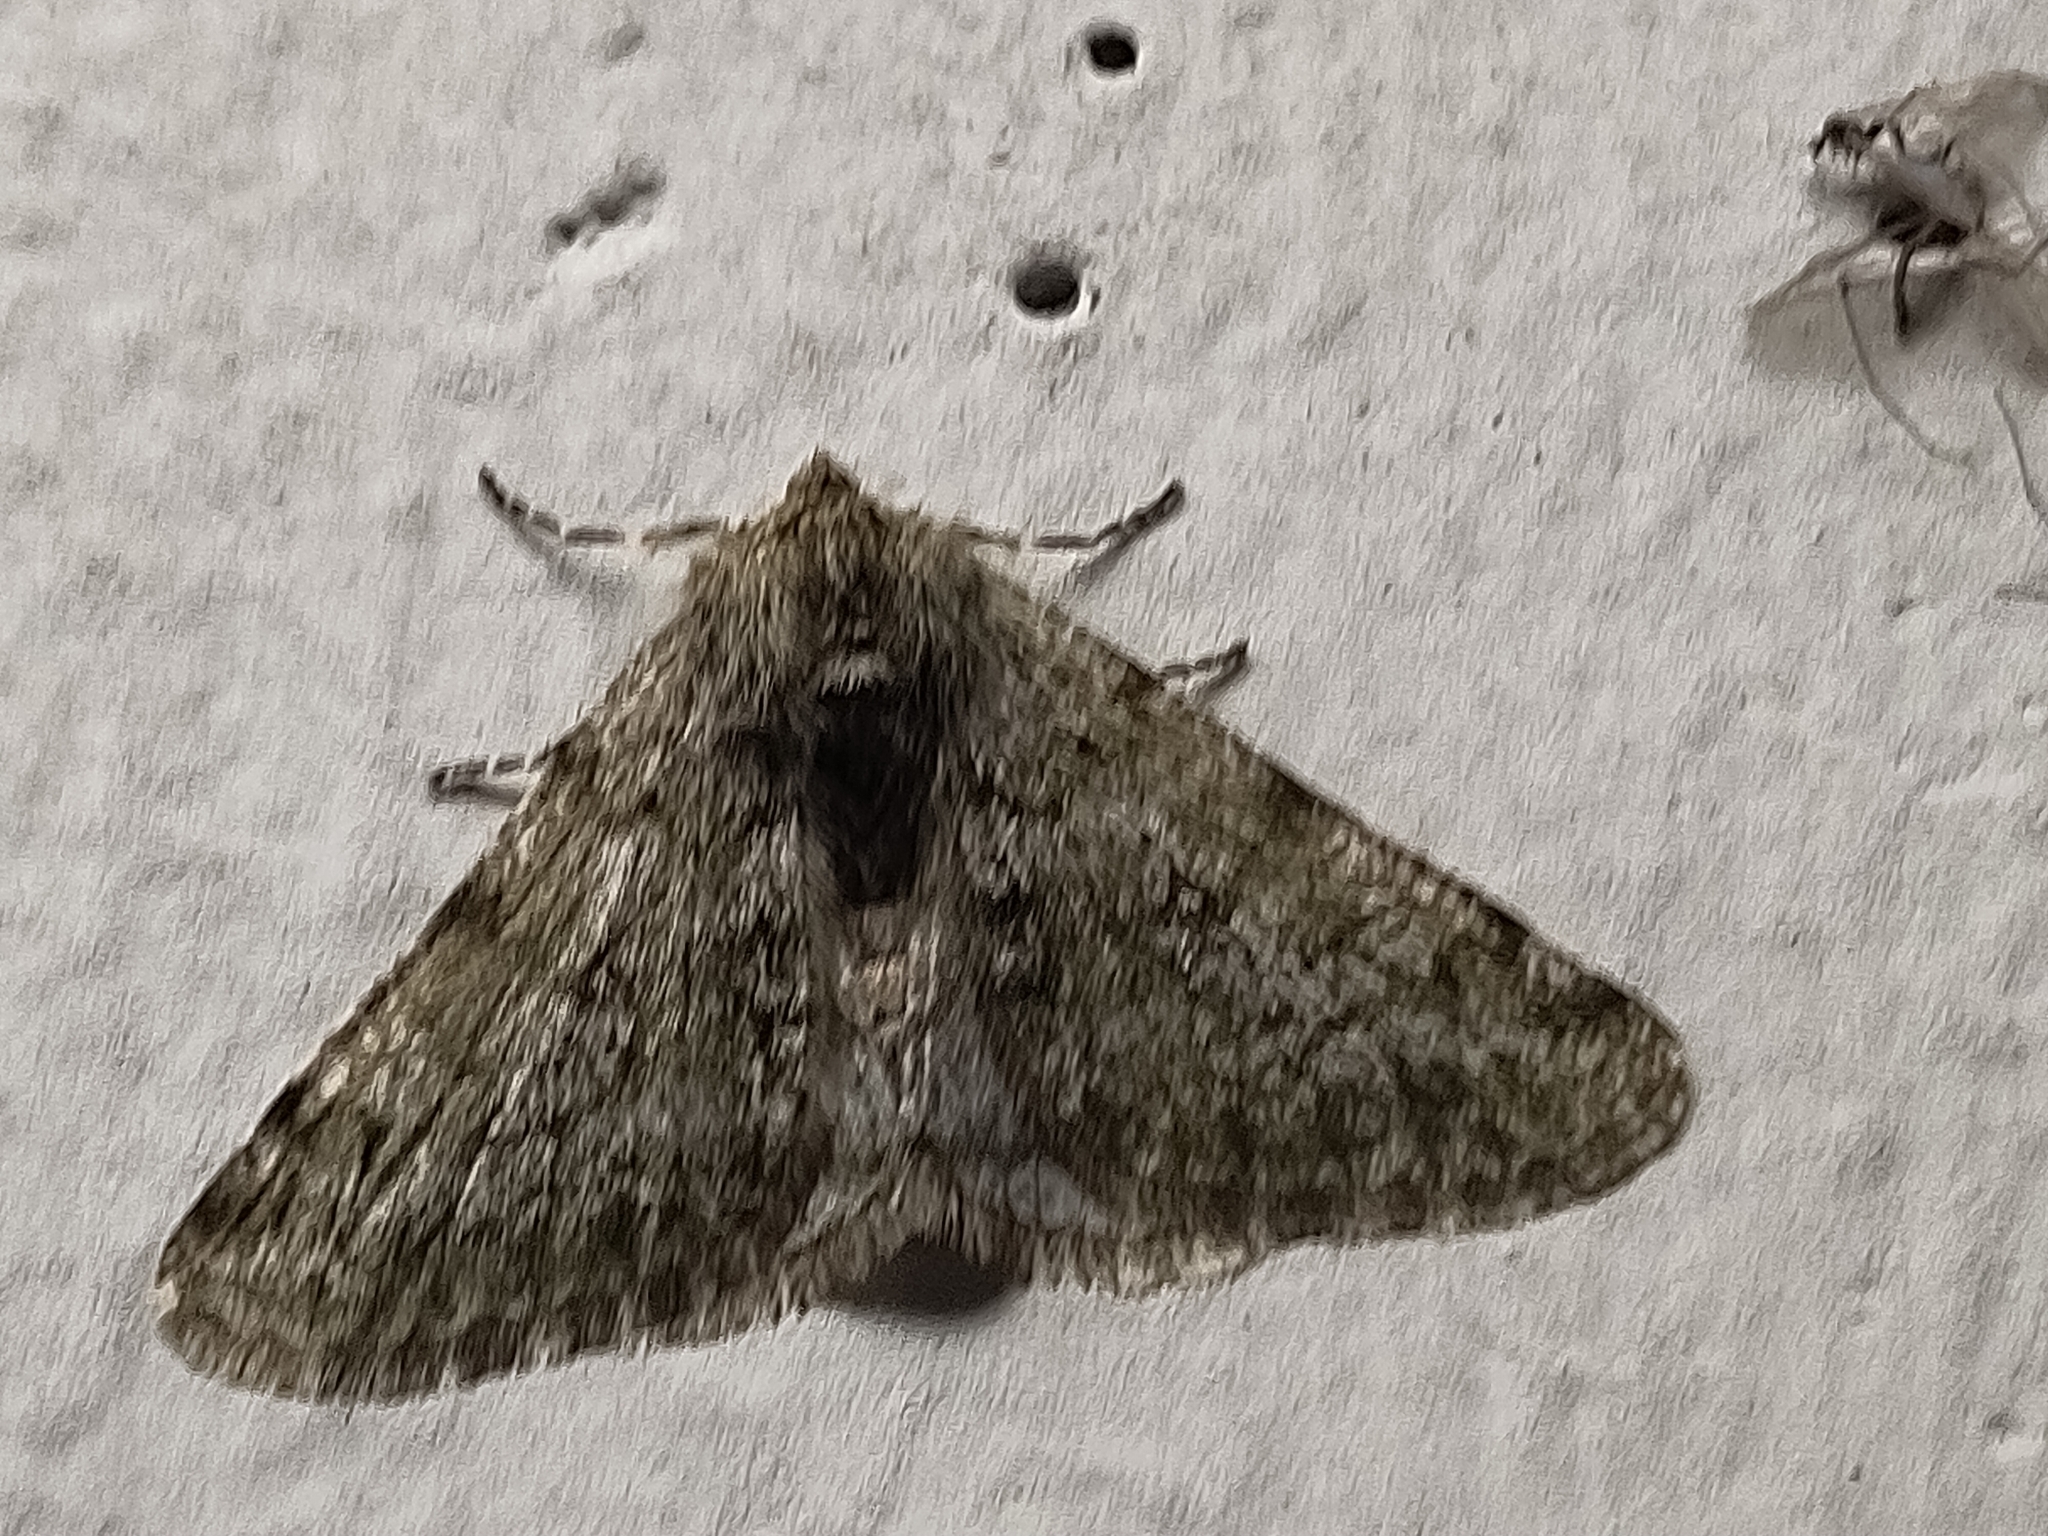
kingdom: Animalia
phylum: Arthropoda
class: Insecta
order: Lepidoptera
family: Geometridae
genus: Phigalia
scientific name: Phigalia pilosaria
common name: Pale brindled beauty
